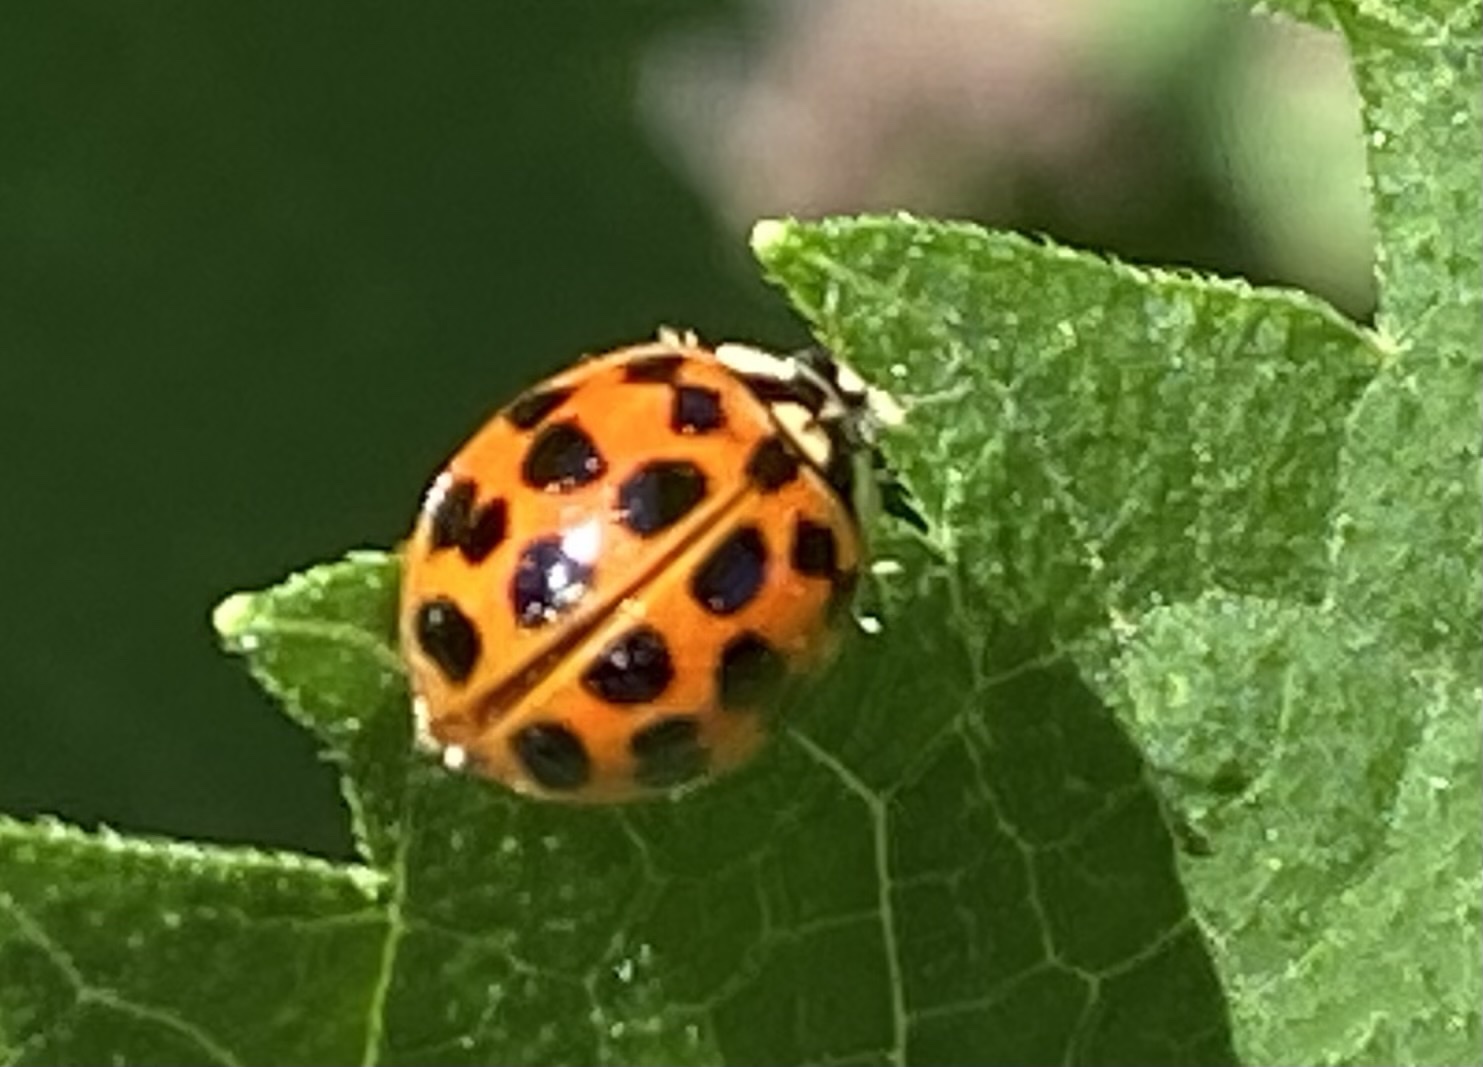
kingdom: Animalia
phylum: Arthropoda
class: Insecta
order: Coleoptera
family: Coccinellidae
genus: Harmonia
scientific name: Harmonia axyridis
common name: Harlequin ladybird
